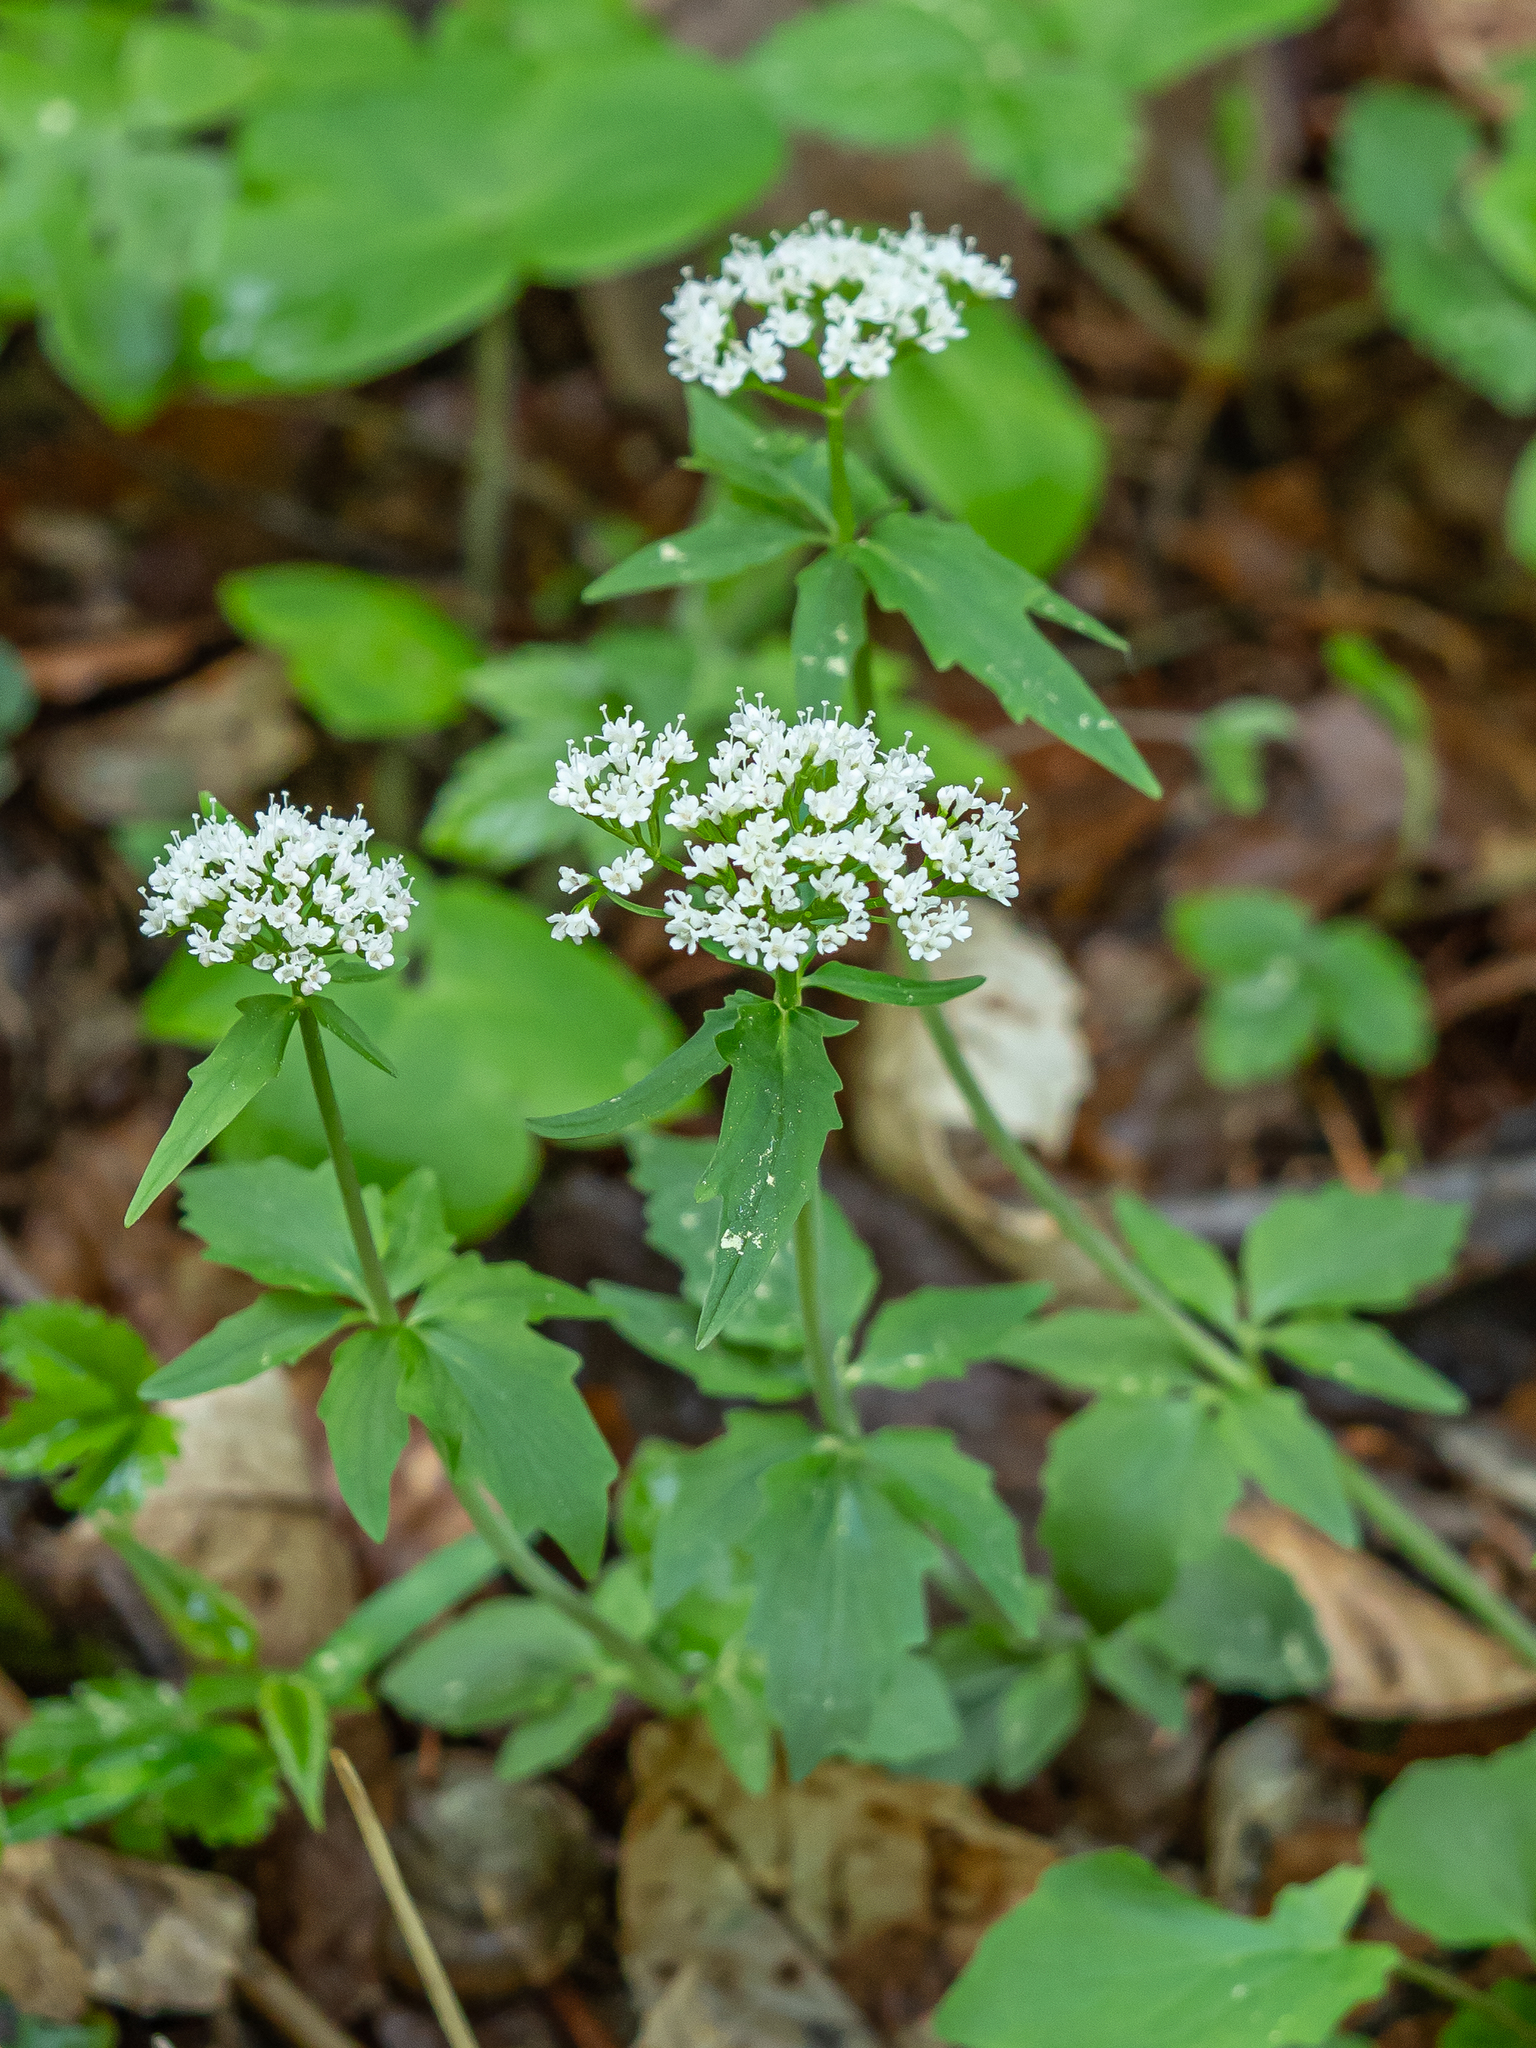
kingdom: Plantae
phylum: Tracheophyta
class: Magnoliopsida
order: Dipsacales
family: Caprifoliaceae
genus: Valeriana
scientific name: Valeriana tripteris
